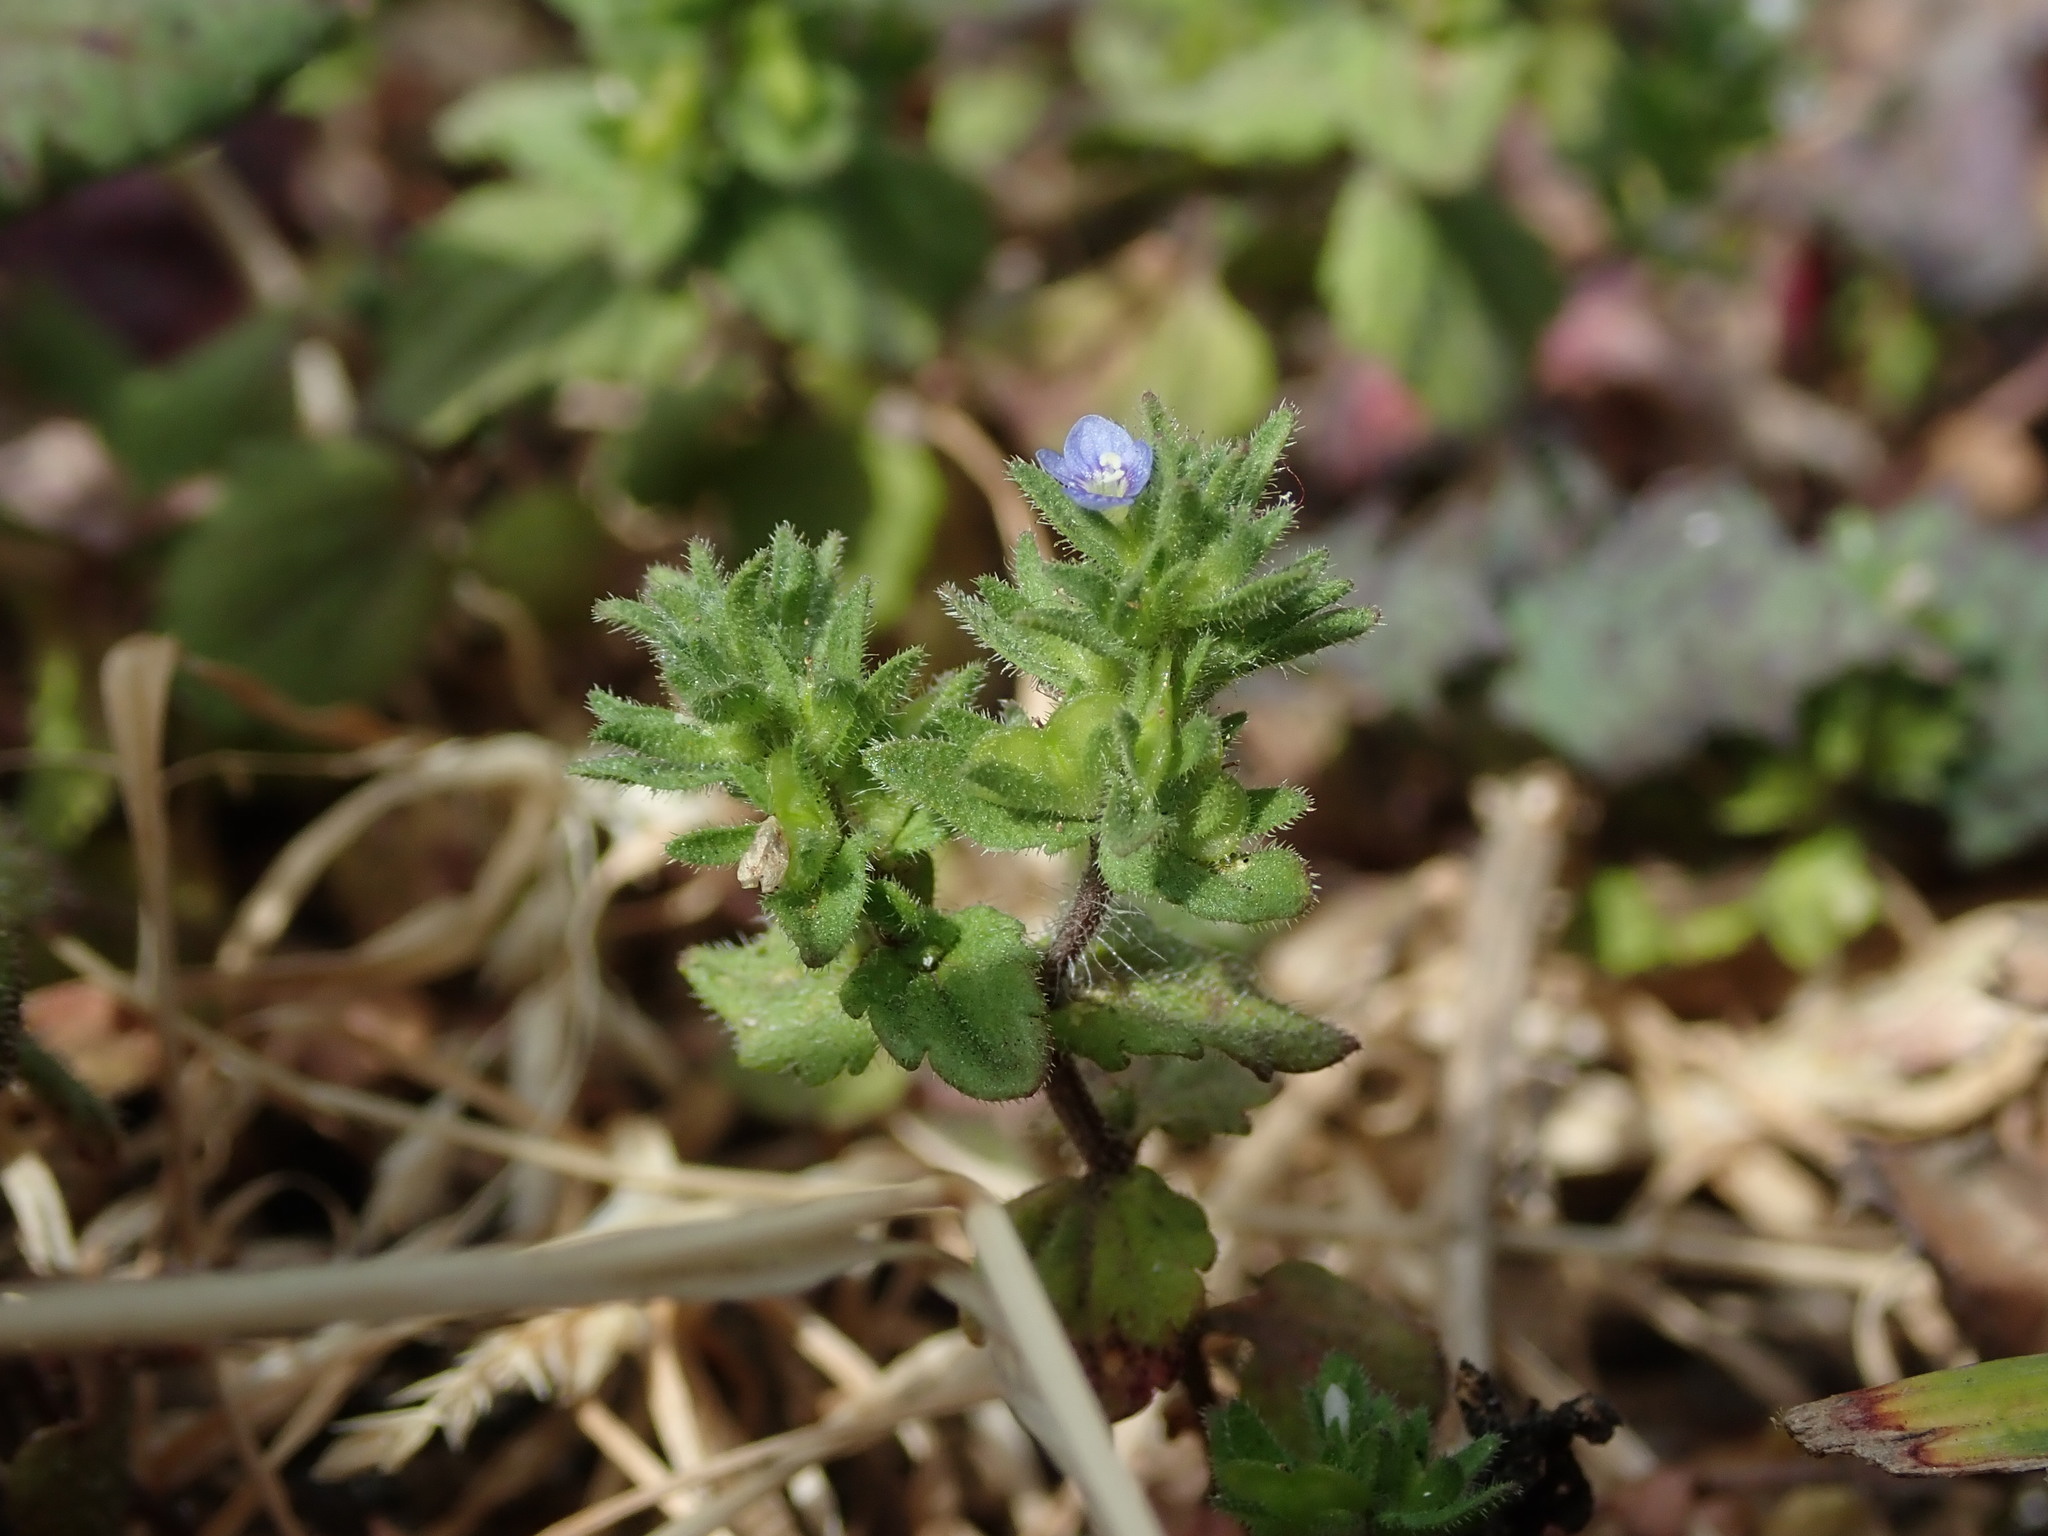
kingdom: Plantae
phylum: Tracheophyta
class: Magnoliopsida
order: Lamiales
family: Plantaginaceae
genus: Veronica
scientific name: Veronica arvensis
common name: Corn speedwell
